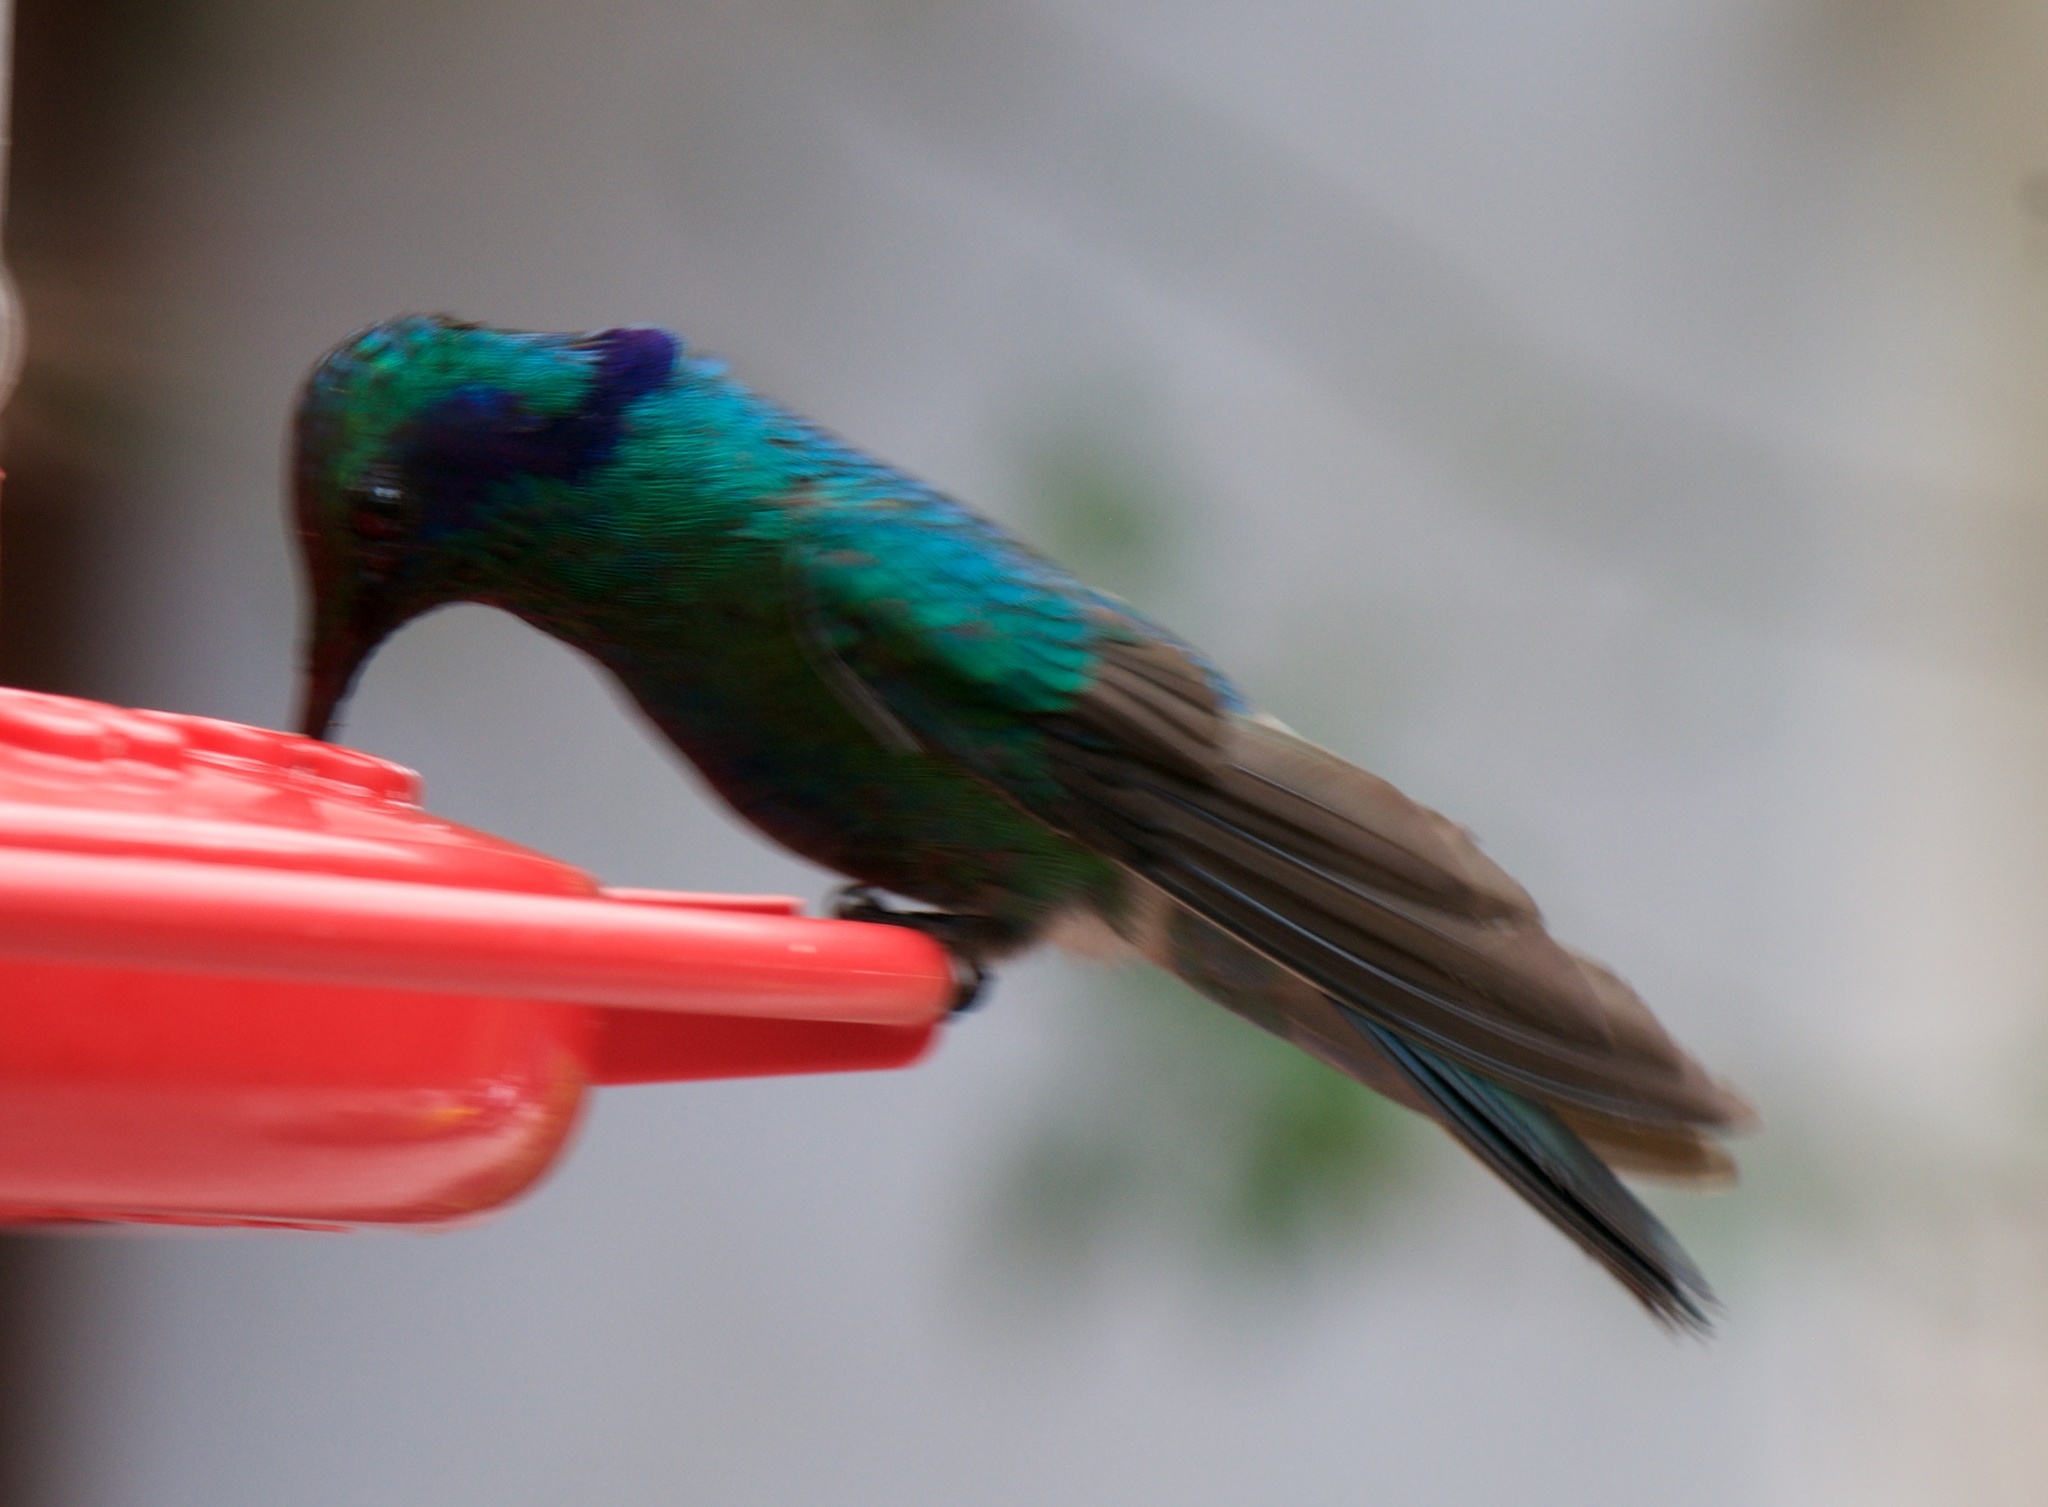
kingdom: Animalia
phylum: Chordata
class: Aves
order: Apodiformes
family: Trochilidae
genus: Colibri
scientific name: Colibri cyanotus
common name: Lesser violetear
